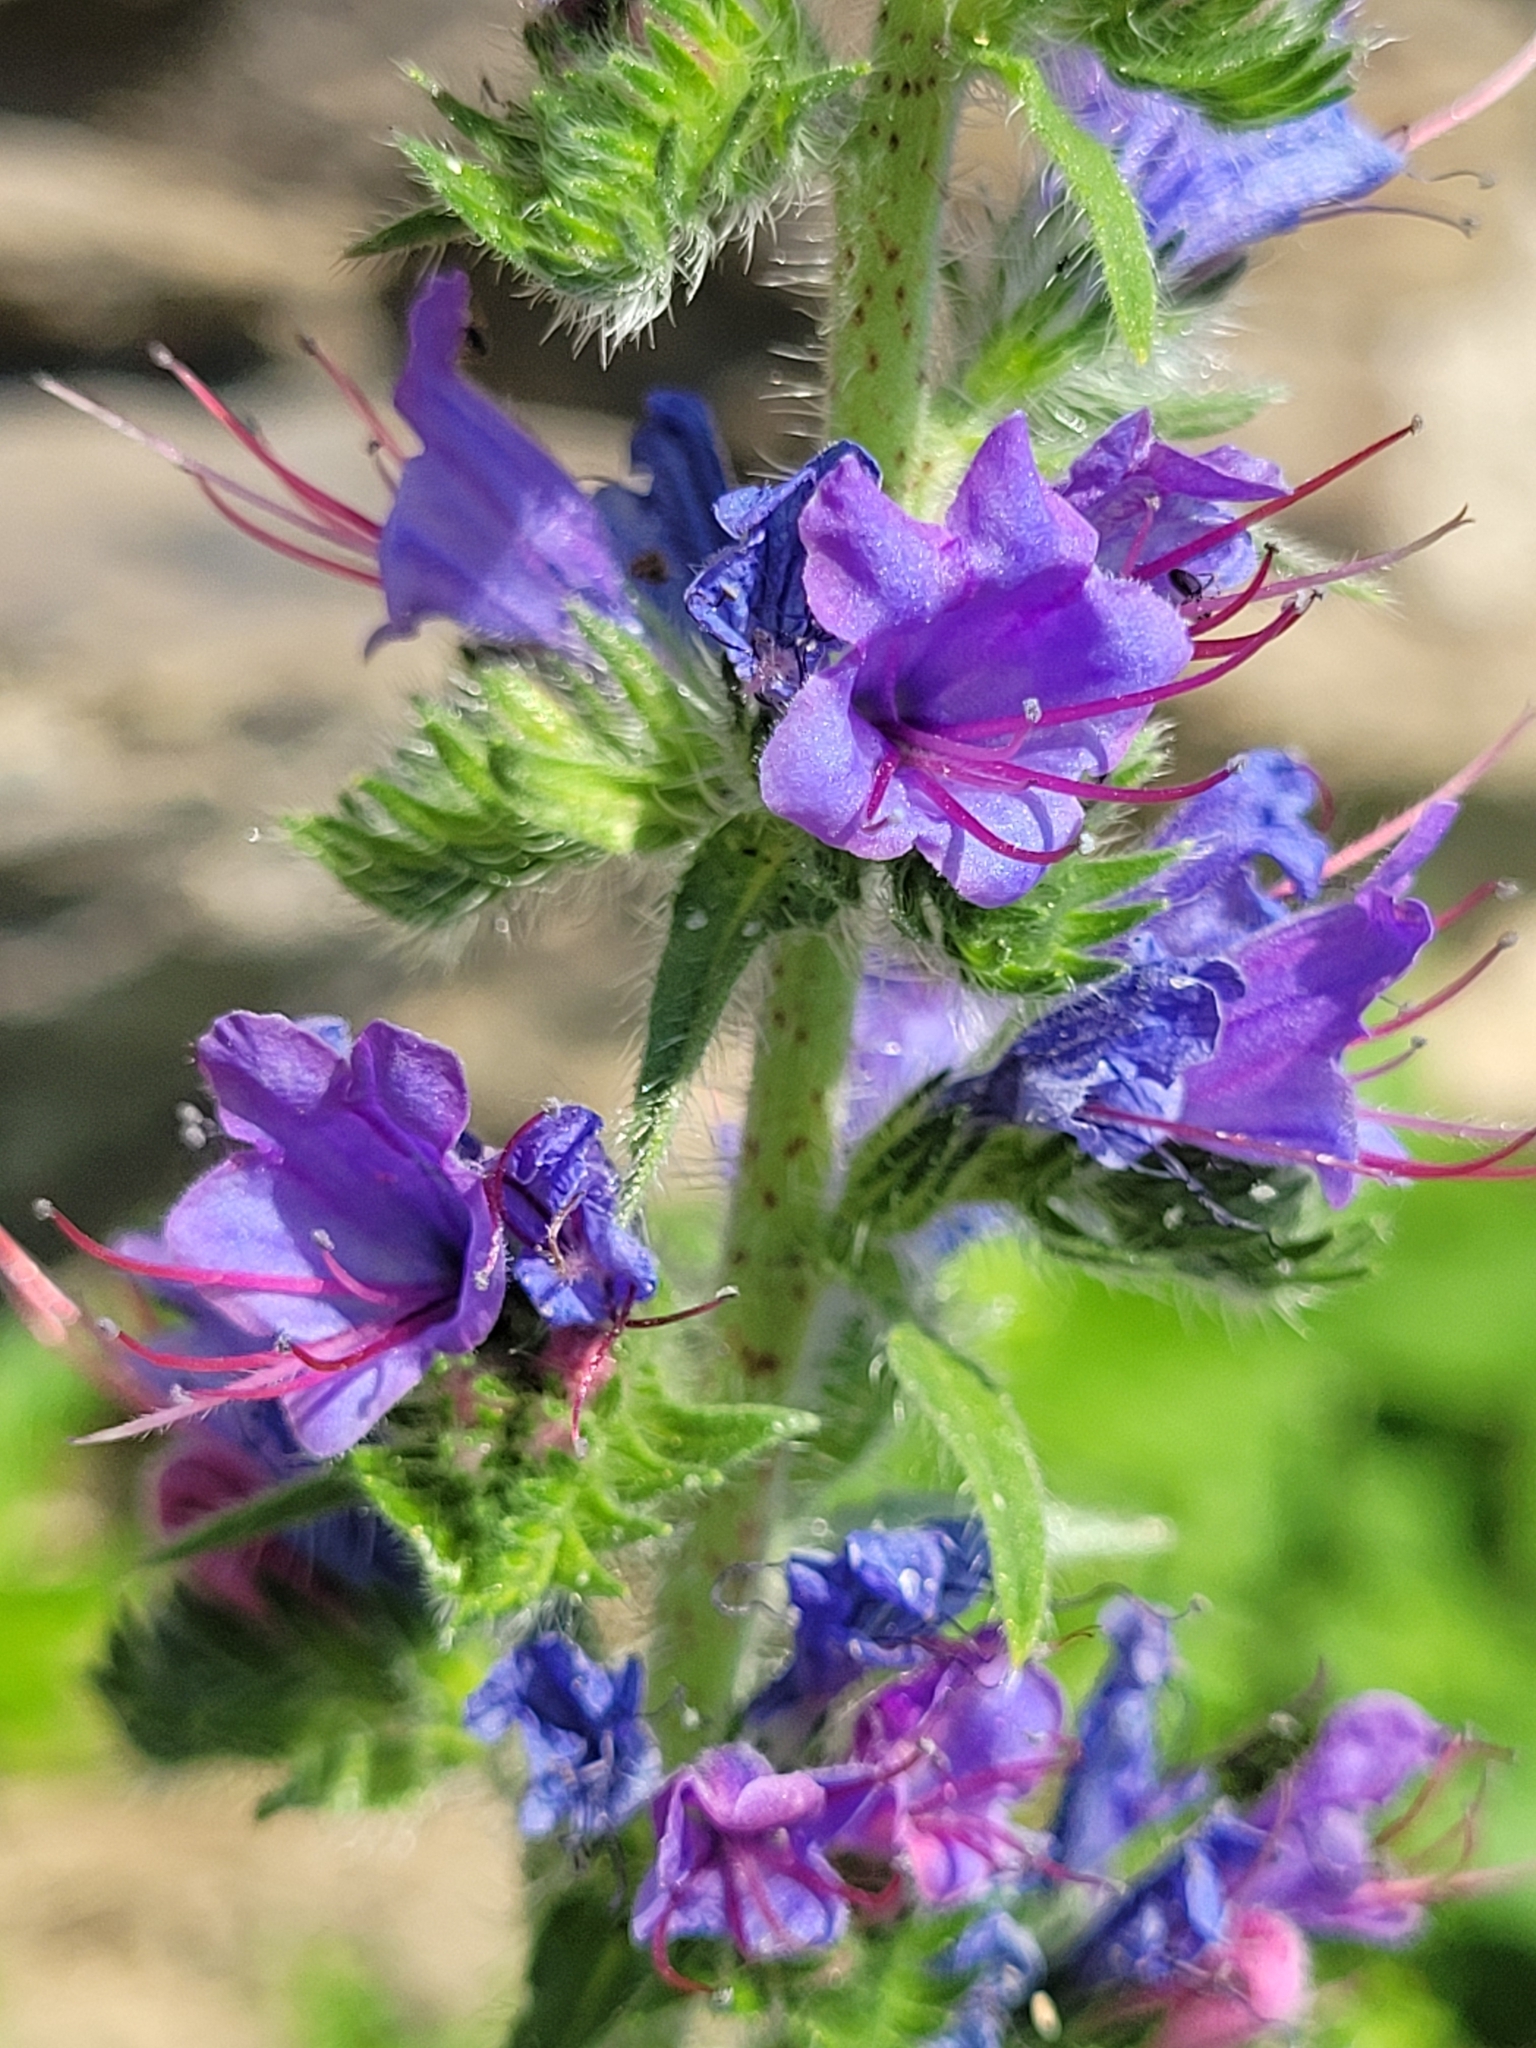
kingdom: Plantae
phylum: Tracheophyta
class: Magnoliopsida
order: Boraginales
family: Boraginaceae
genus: Echium
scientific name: Echium vulgare
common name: Common viper's bugloss
